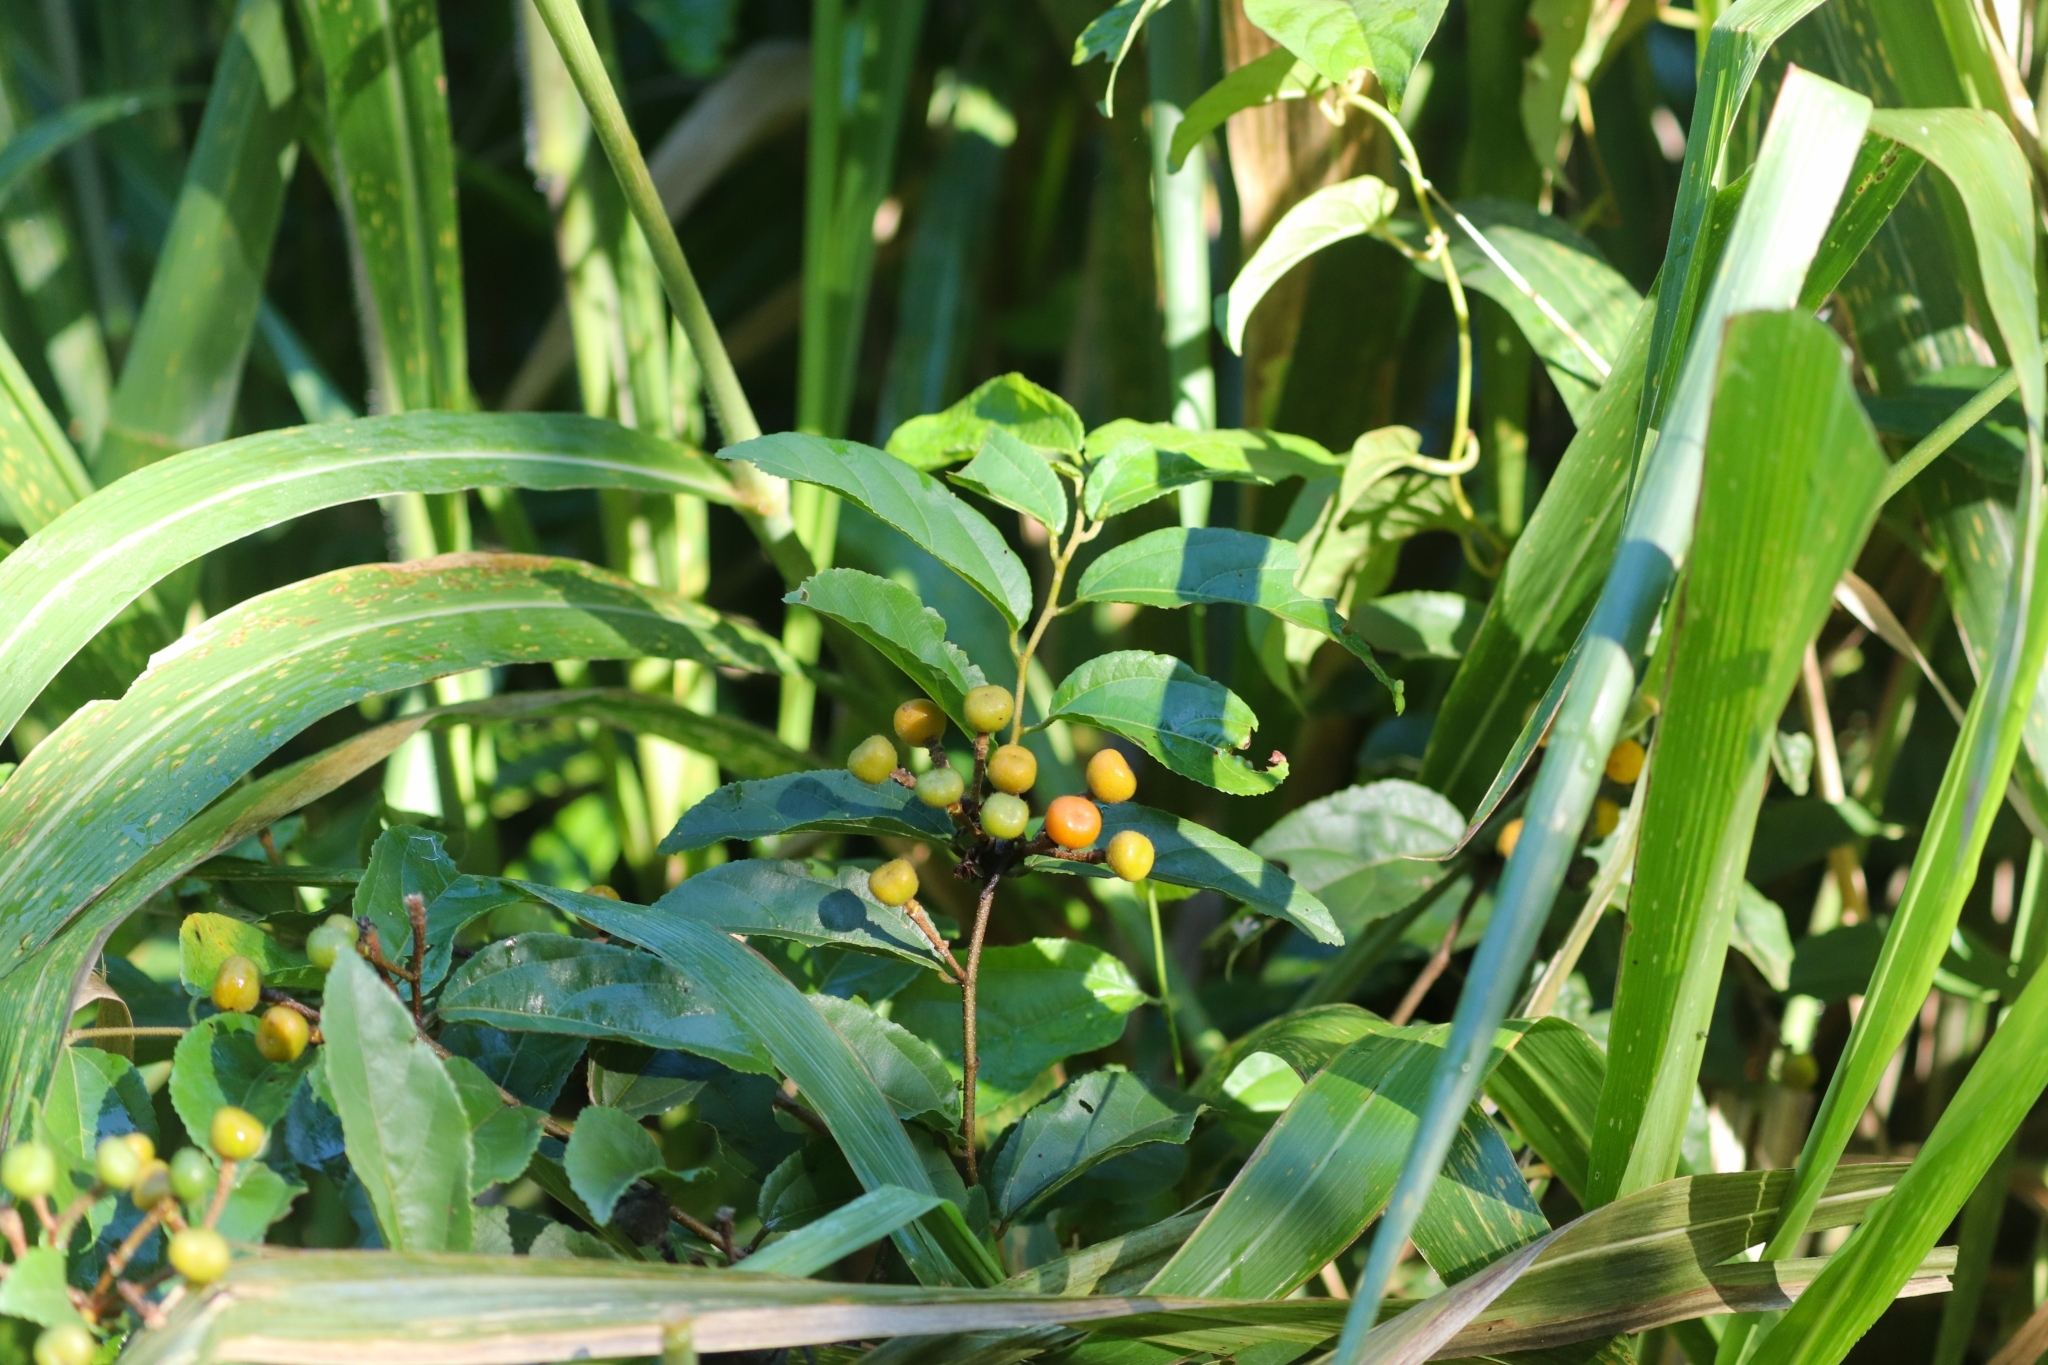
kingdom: Plantae
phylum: Tracheophyta
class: Magnoliopsida
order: Malvales
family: Malvaceae
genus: Grewia
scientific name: Grewia orientalis
